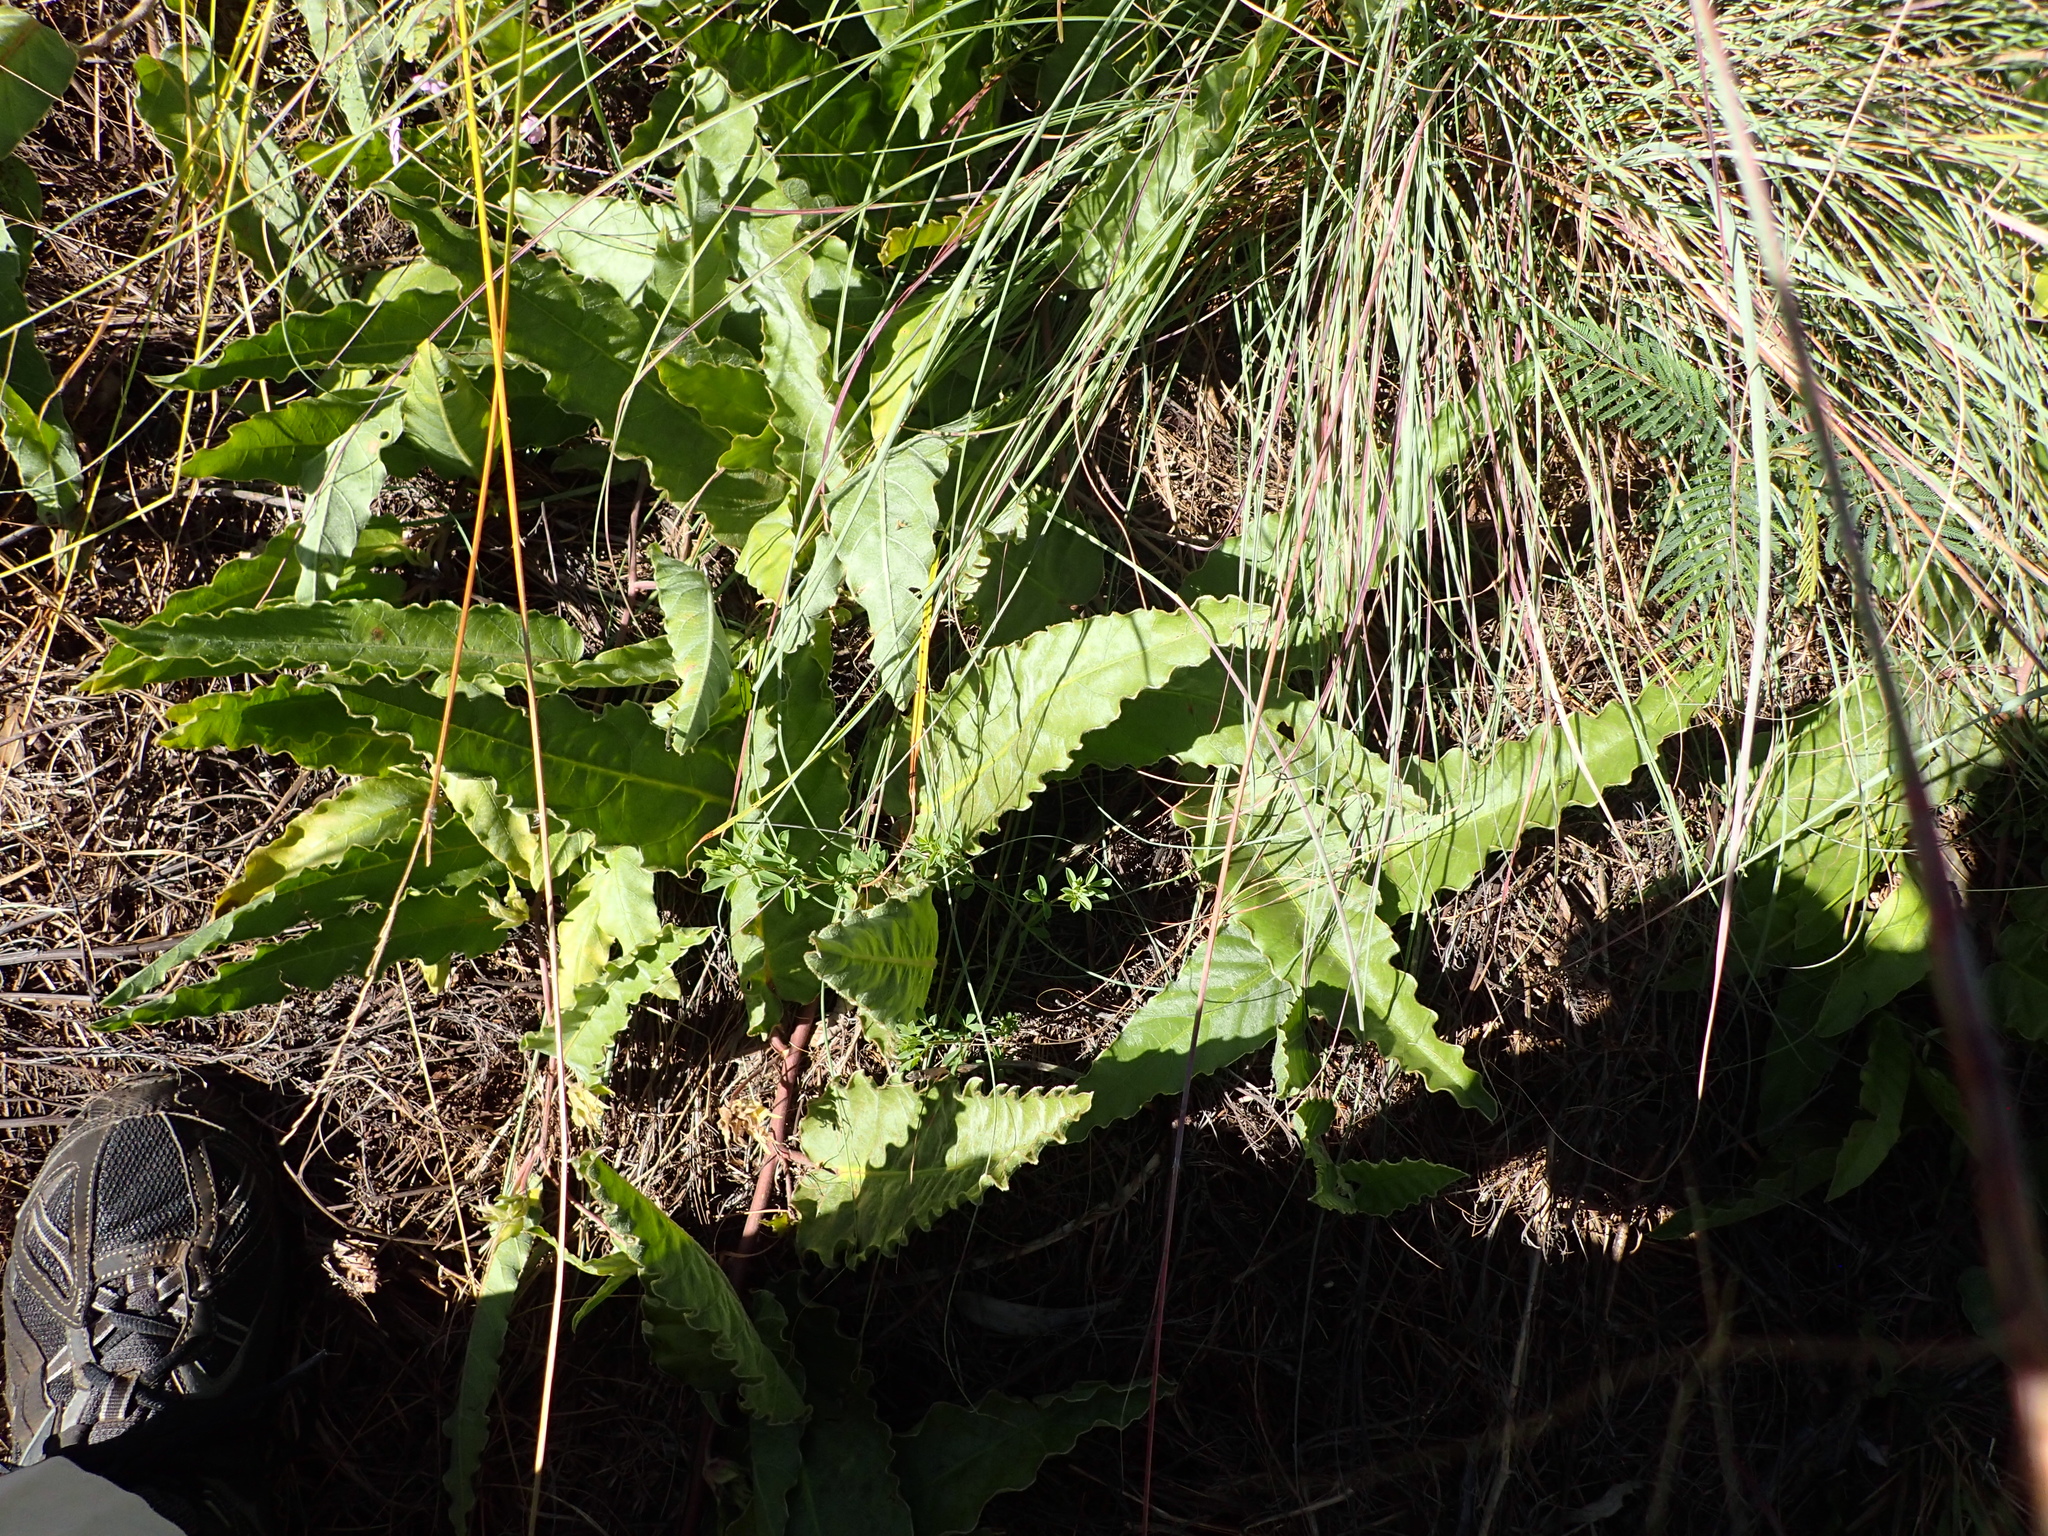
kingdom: Plantae
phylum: Tracheophyta
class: Magnoliopsida
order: Solanales
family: Convolvulaceae
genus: Ipomoea
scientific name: Ipomoea ommanneyi
